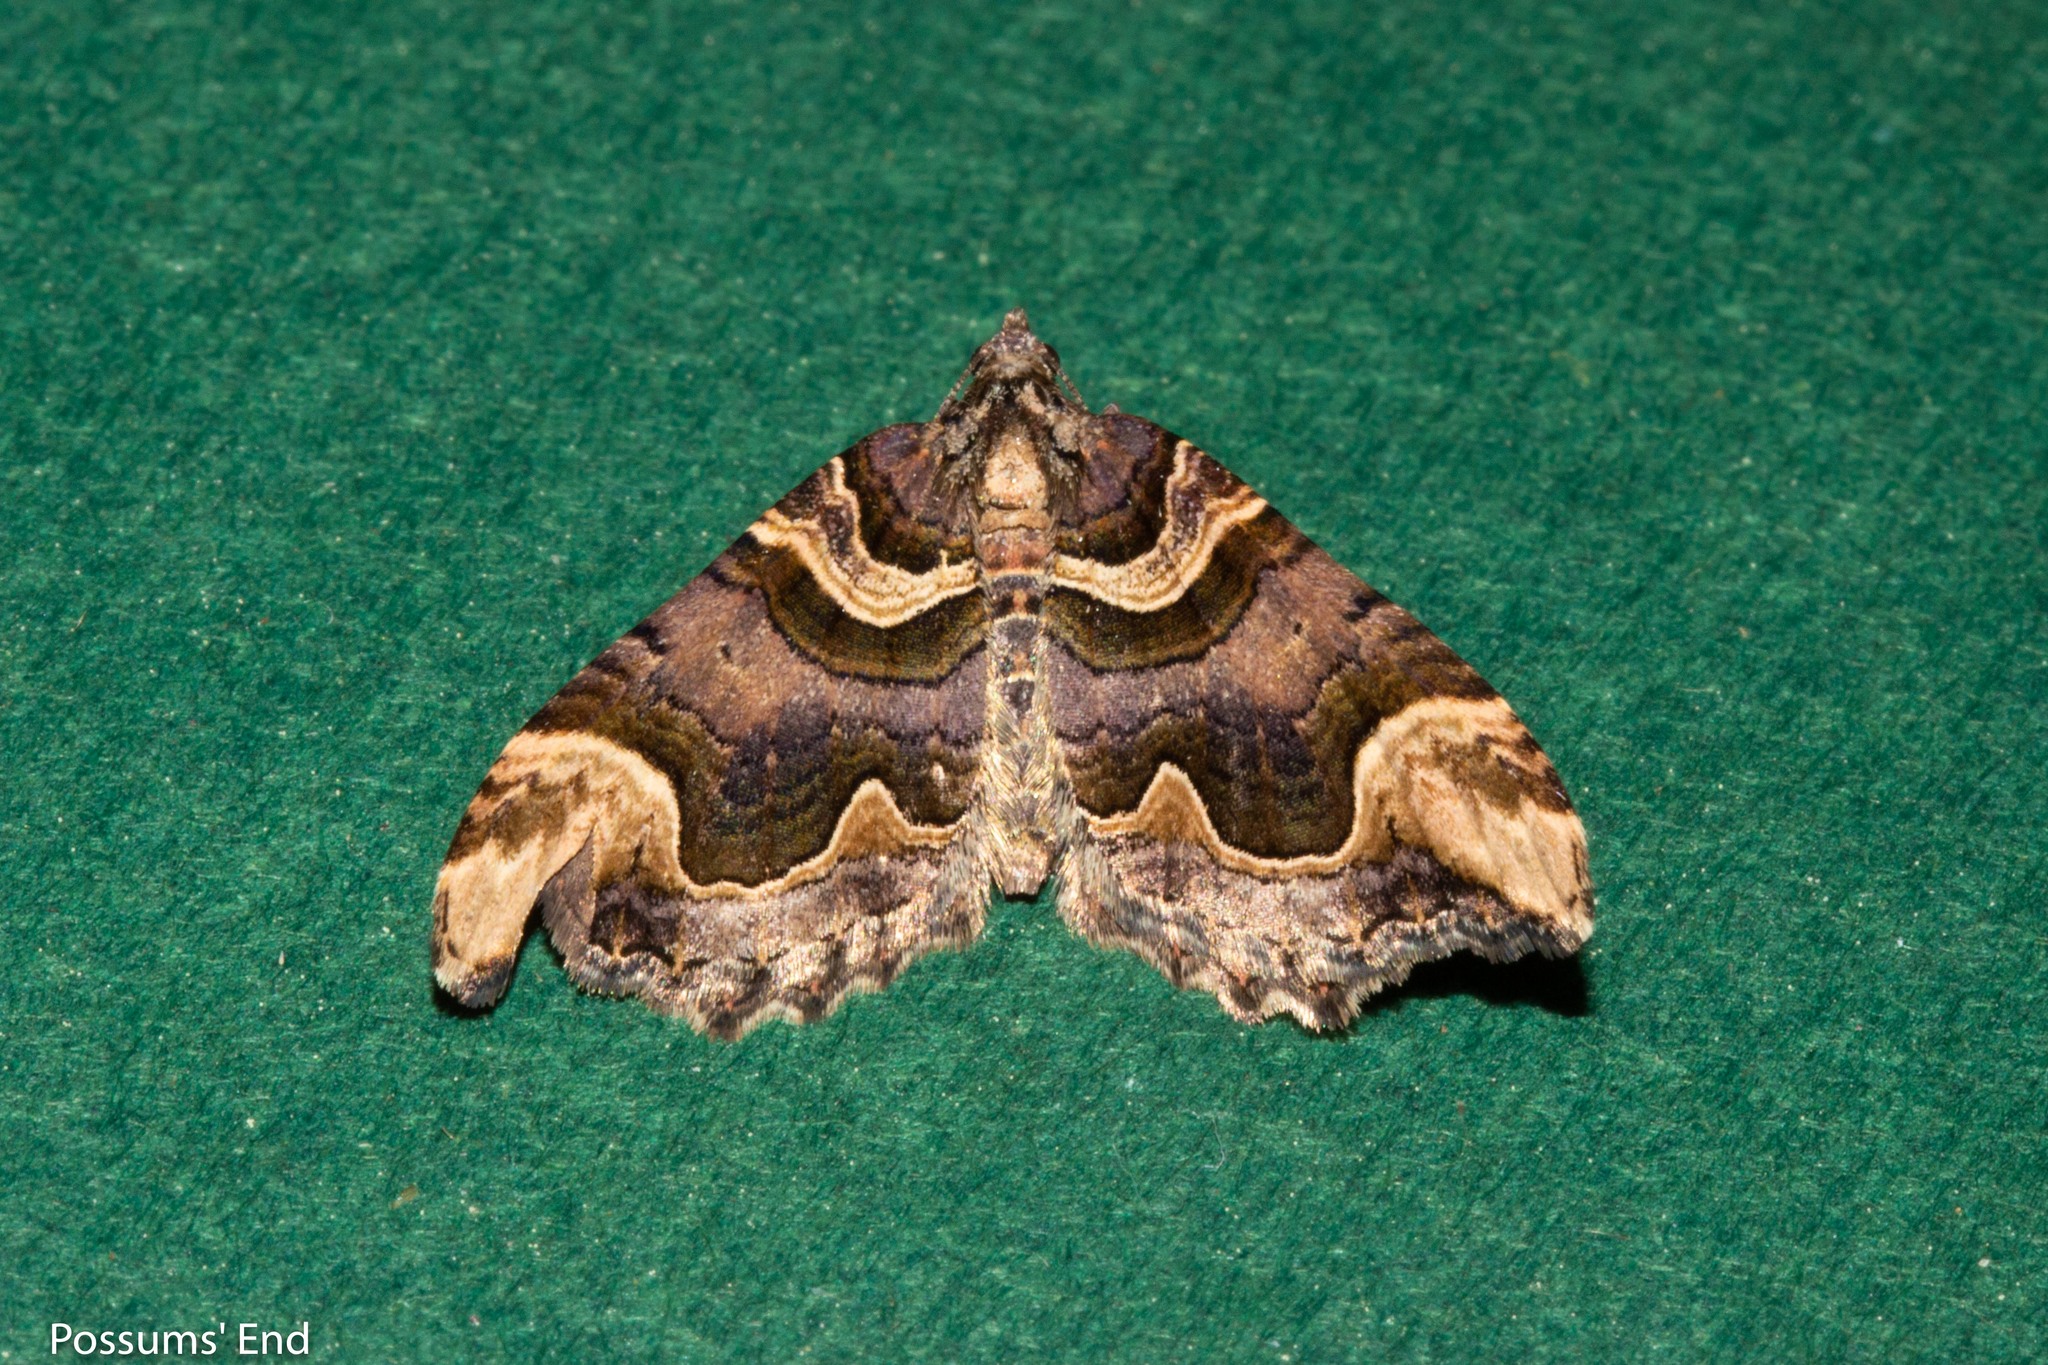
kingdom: Animalia
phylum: Arthropoda
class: Insecta
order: Lepidoptera
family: Geometridae
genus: Asaphodes
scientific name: Asaphodes chlamydota
